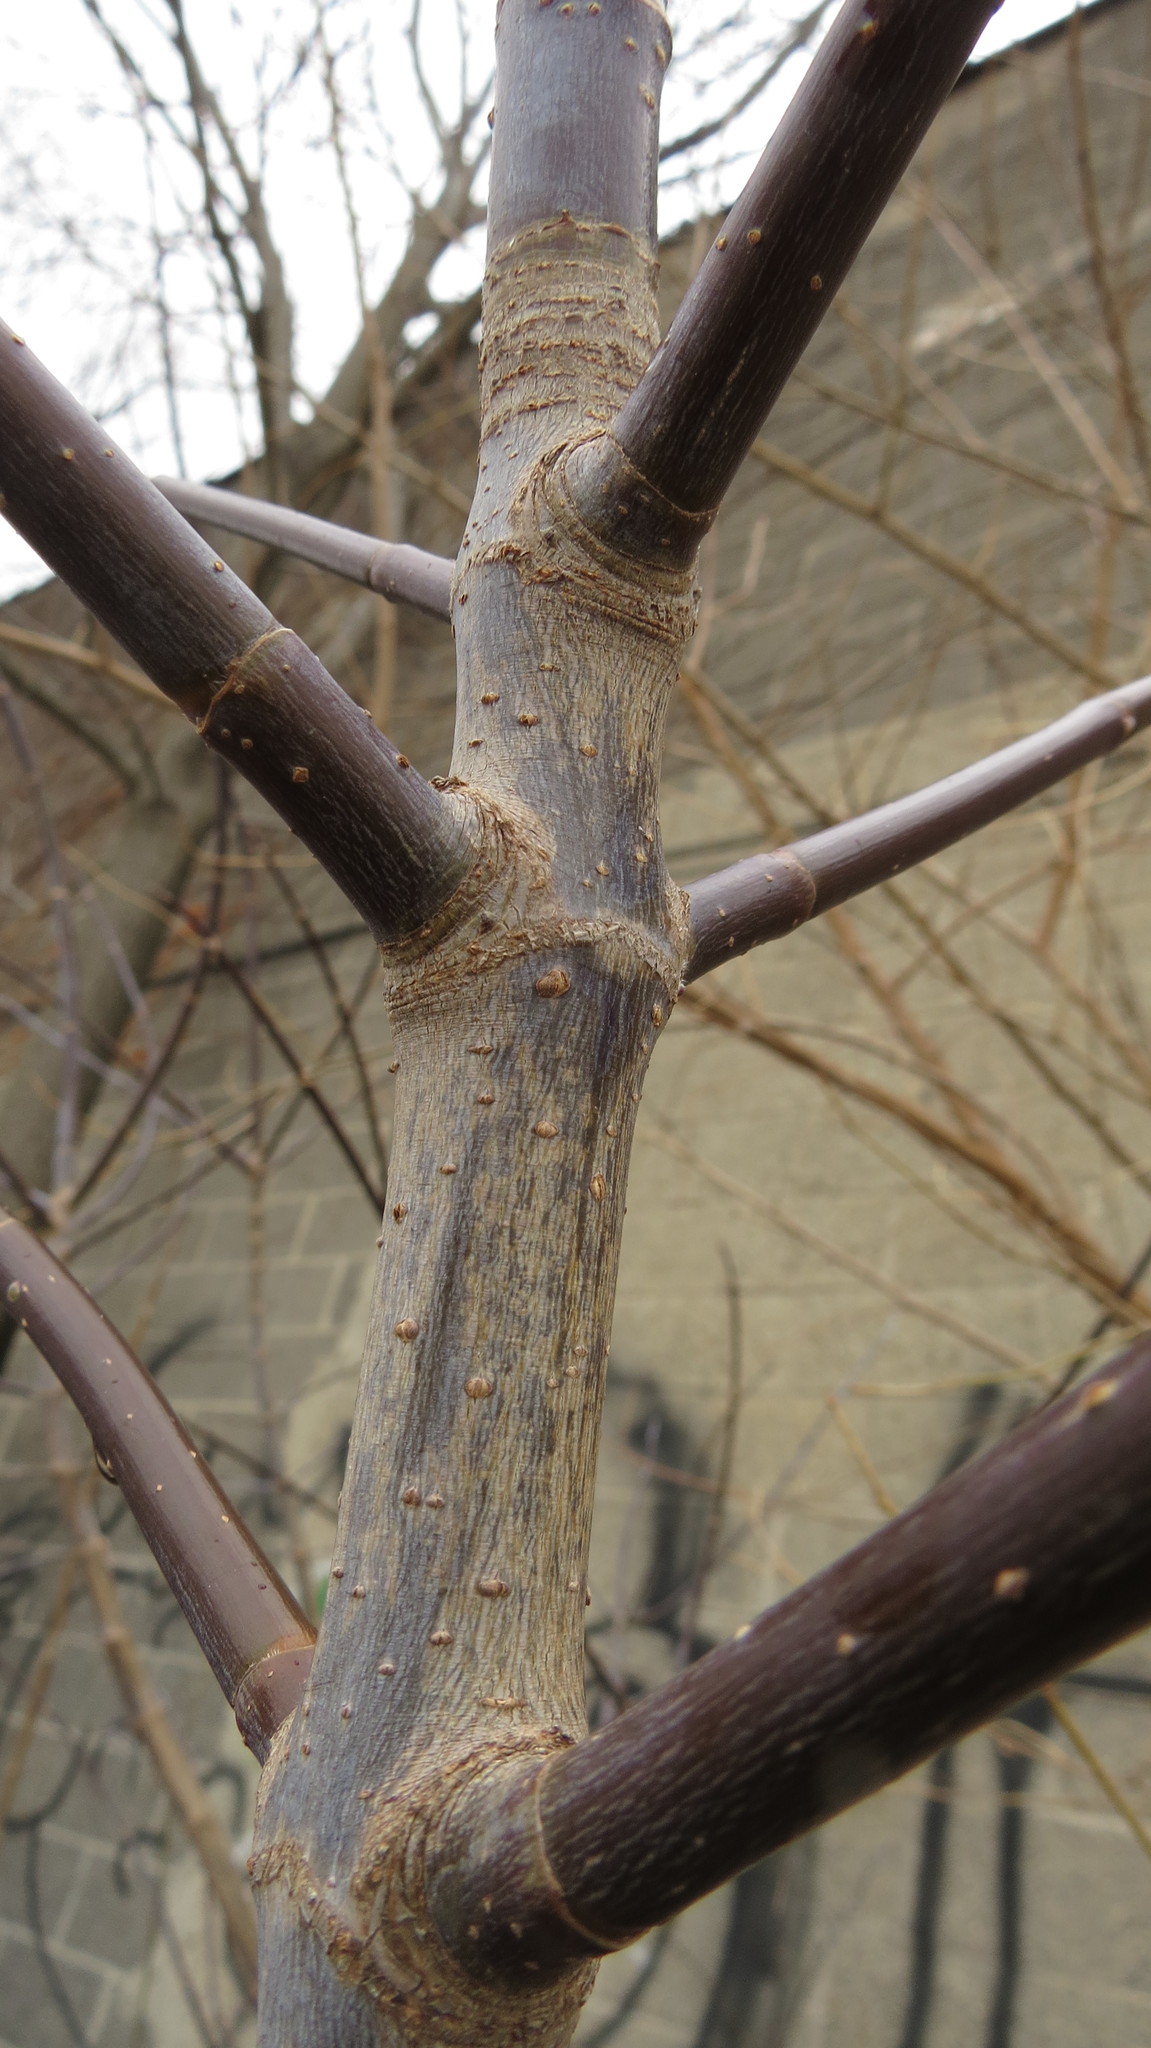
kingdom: Plantae
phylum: Tracheophyta
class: Magnoliopsida
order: Sapindales
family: Sapindaceae
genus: Acer
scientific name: Acer negundo
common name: Ashleaf maple
